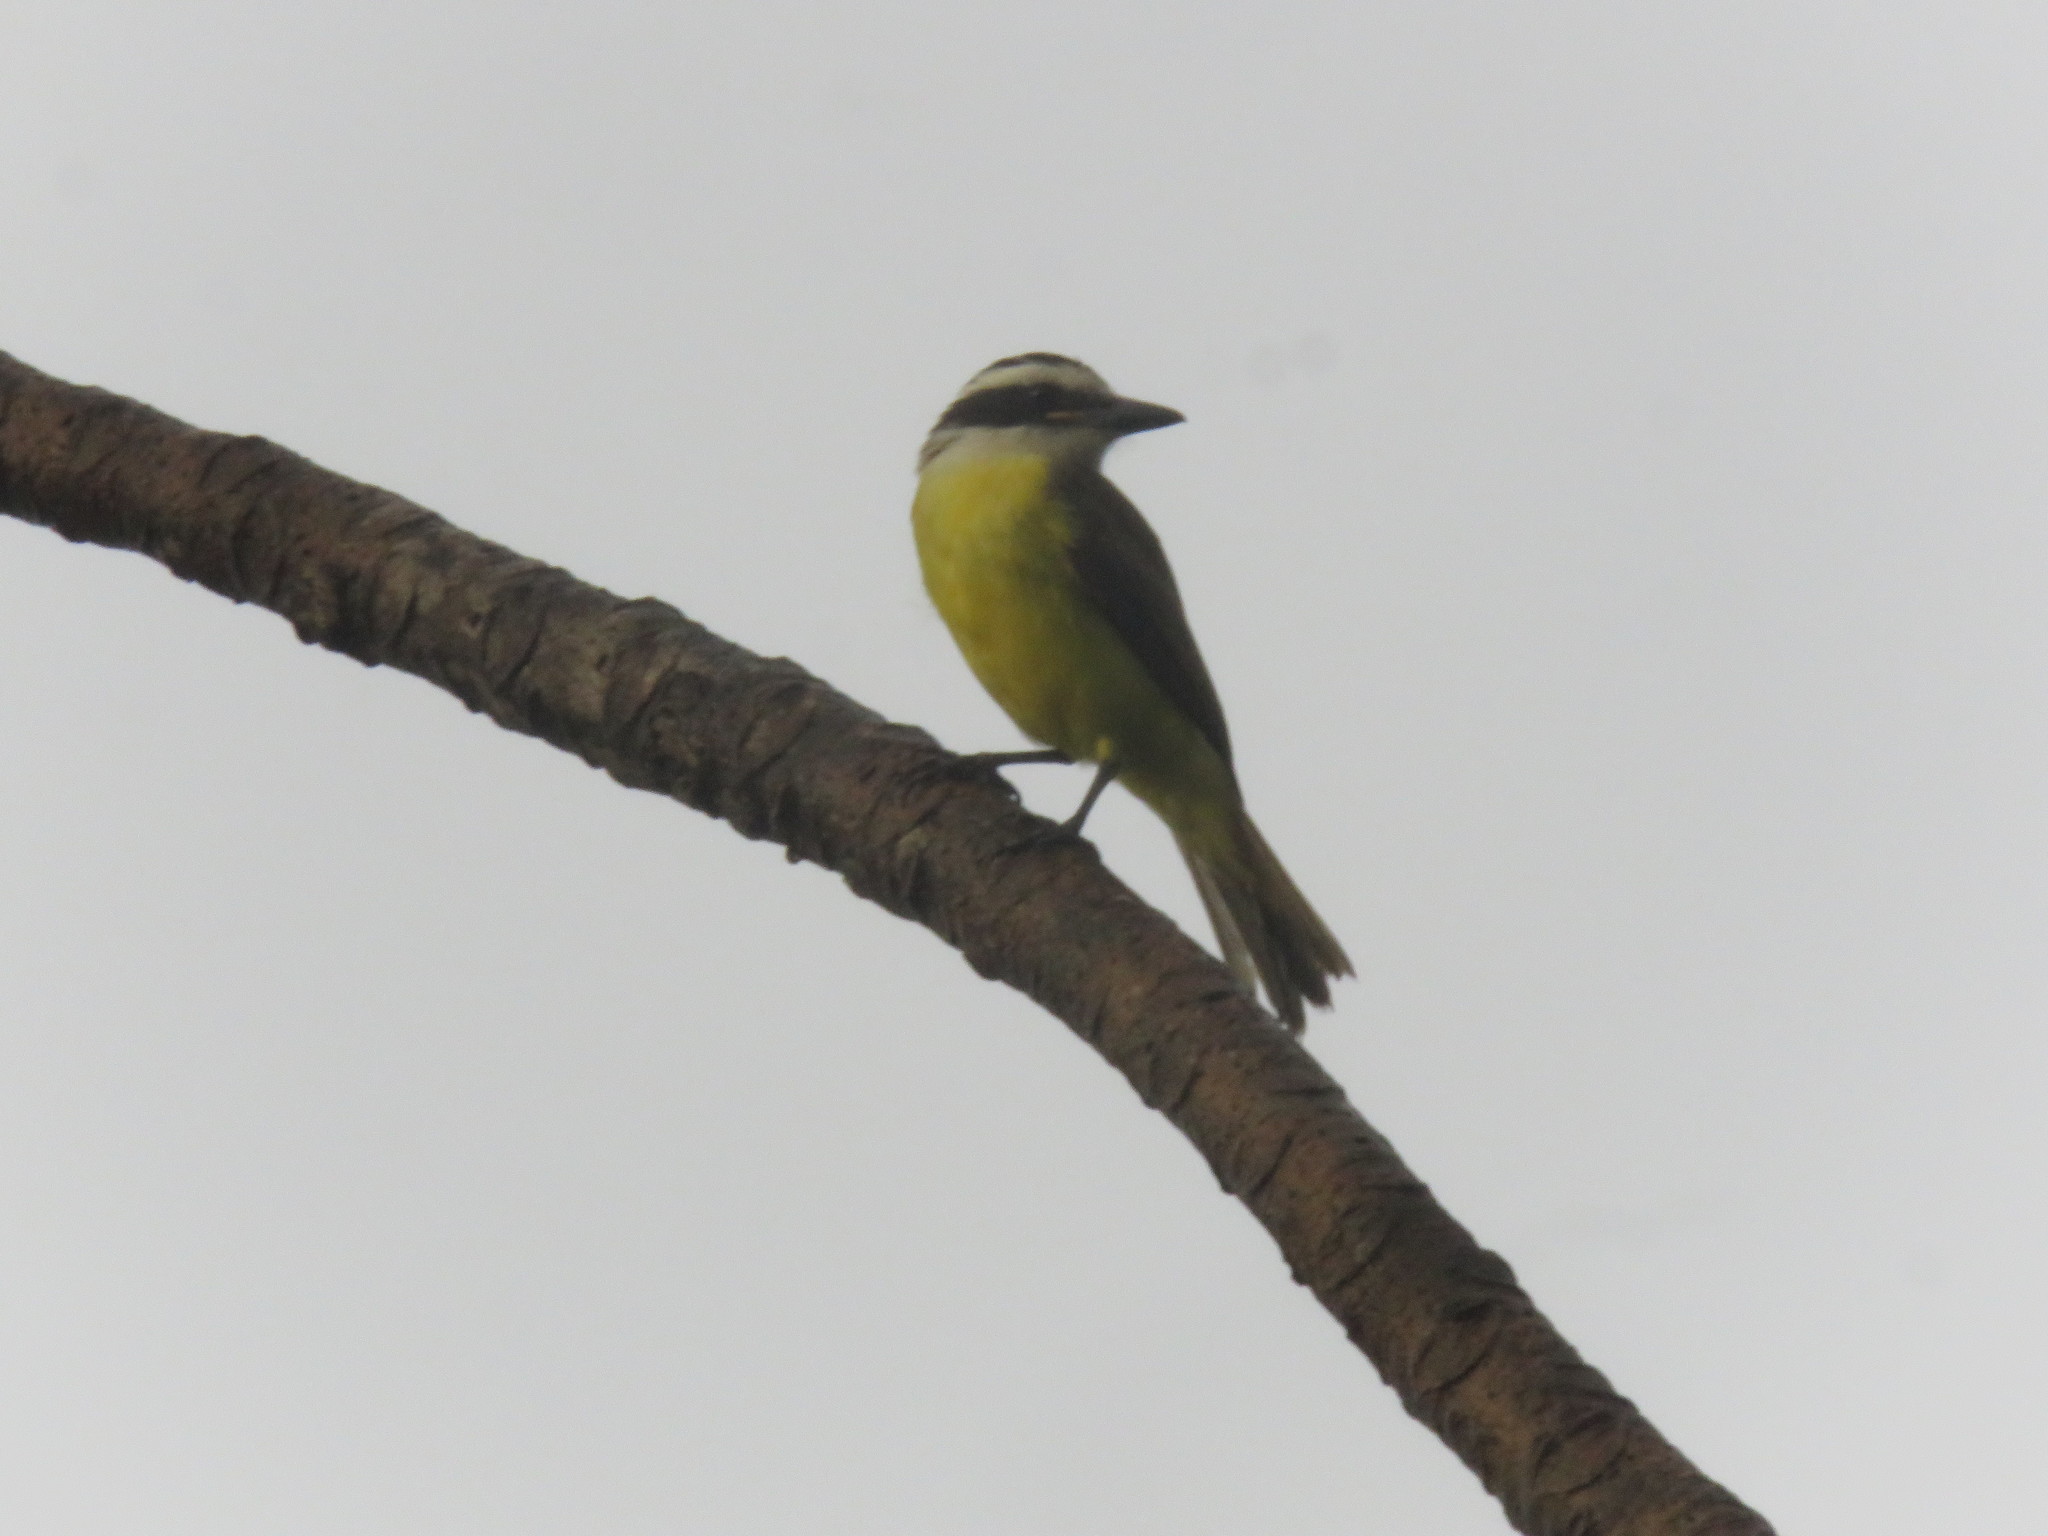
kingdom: Animalia
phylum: Chordata
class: Aves
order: Passeriformes
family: Tyrannidae
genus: Pitangus
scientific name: Pitangus sulphuratus
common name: Great kiskadee
